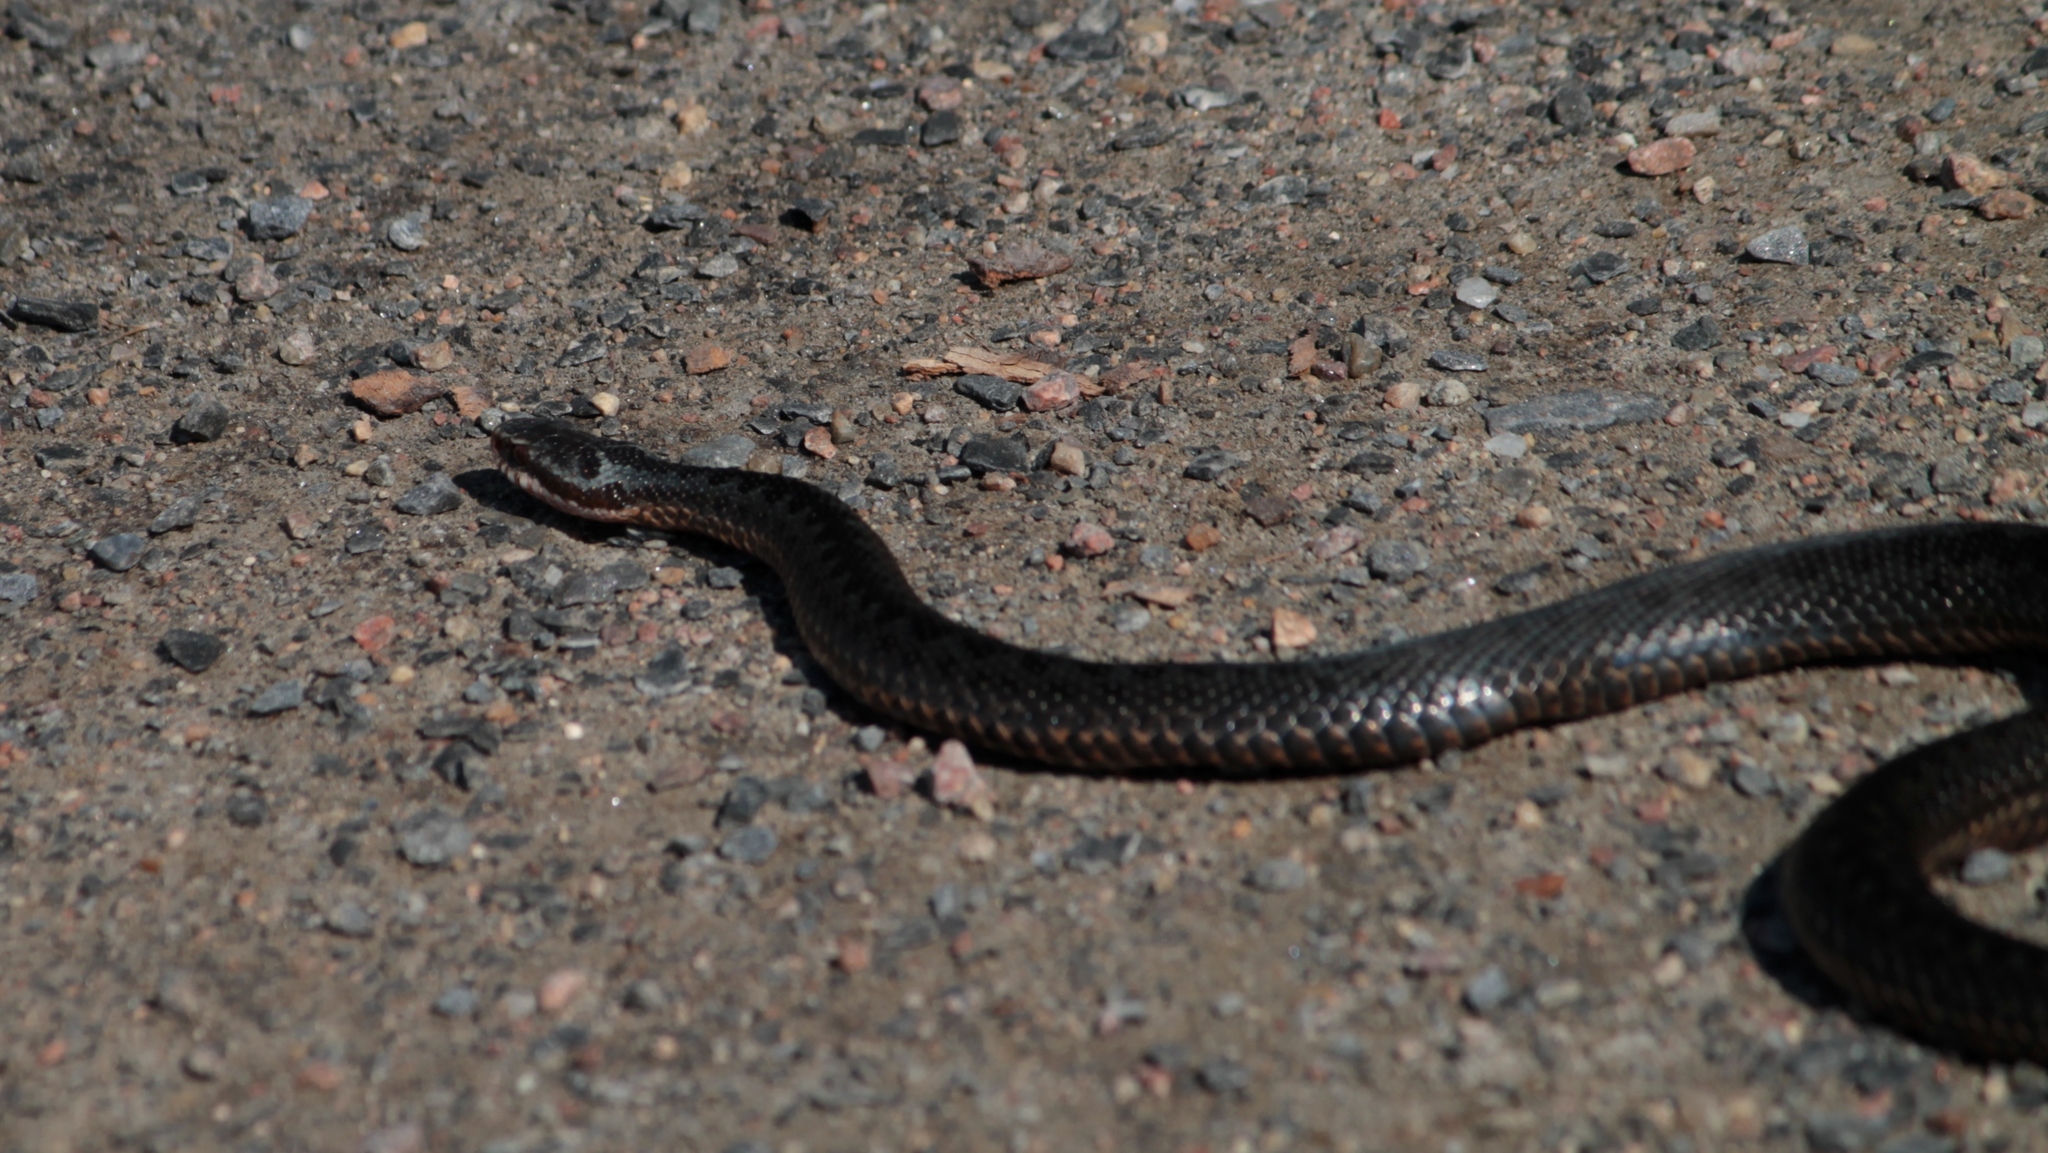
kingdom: Animalia
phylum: Chordata
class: Squamata
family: Viperidae
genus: Vipera
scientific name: Vipera berus
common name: Adder
